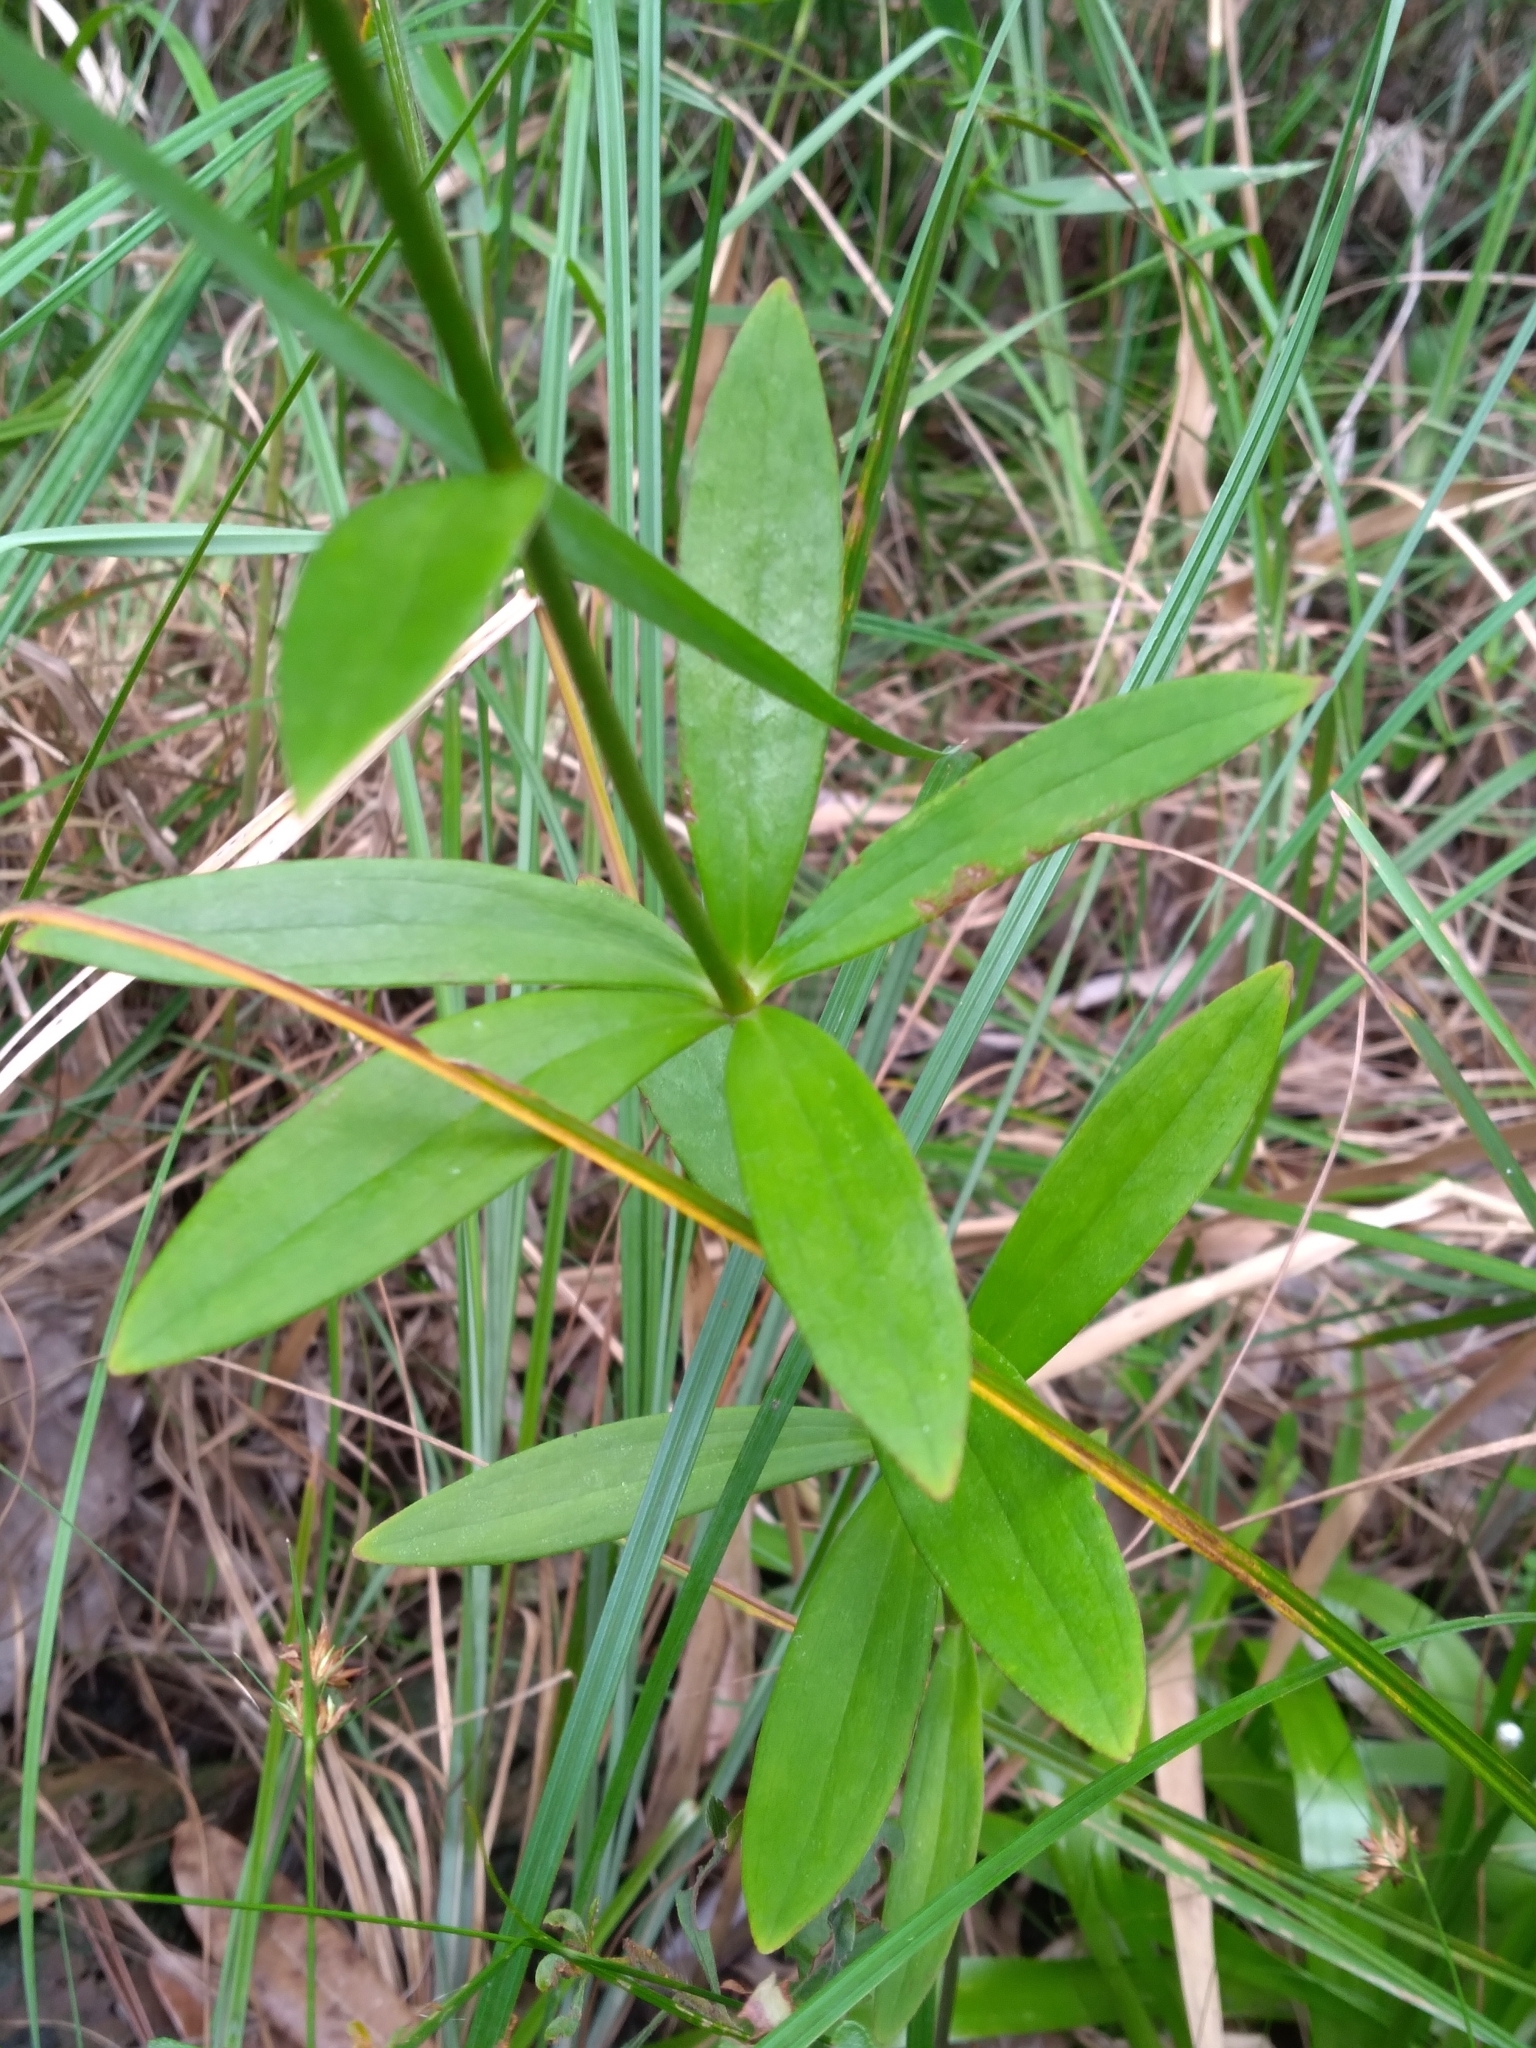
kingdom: Plantae
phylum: Tracheophyta
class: Liliopsida
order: Liliales
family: Liliaceae
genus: Lilium
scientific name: Lilium iridollae
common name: Panhandle lily
